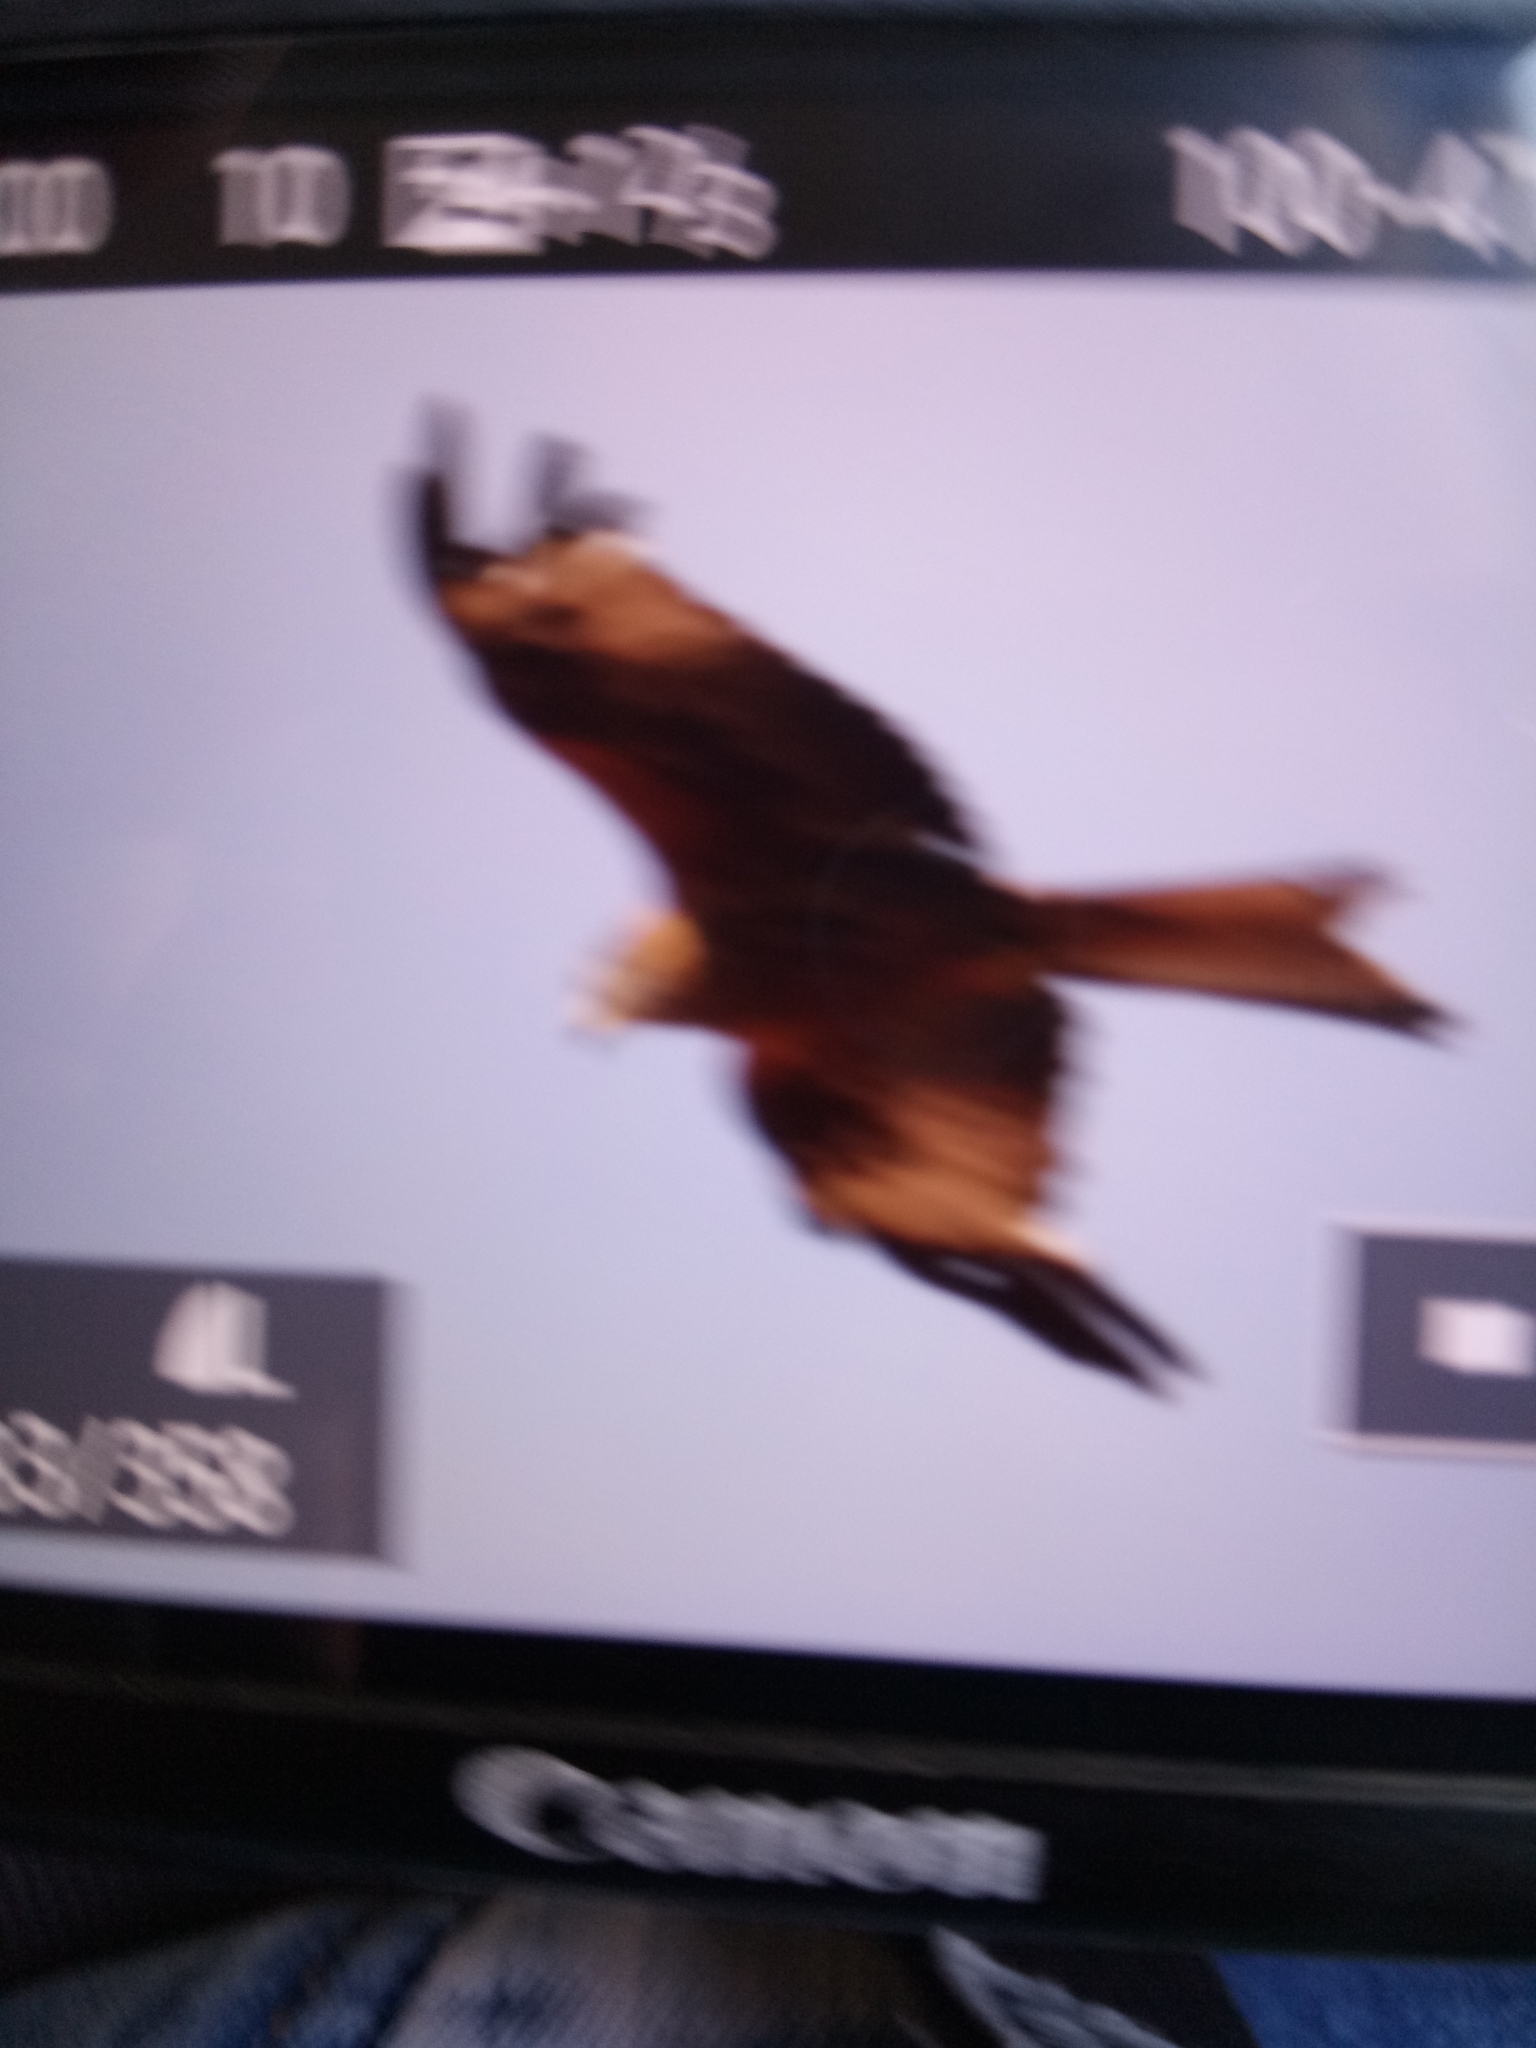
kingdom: Animalia
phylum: Chordata
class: Aves
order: Accipitriformes
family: Accipitridae
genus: Milvus
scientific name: Milvus milvus
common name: Red kite
